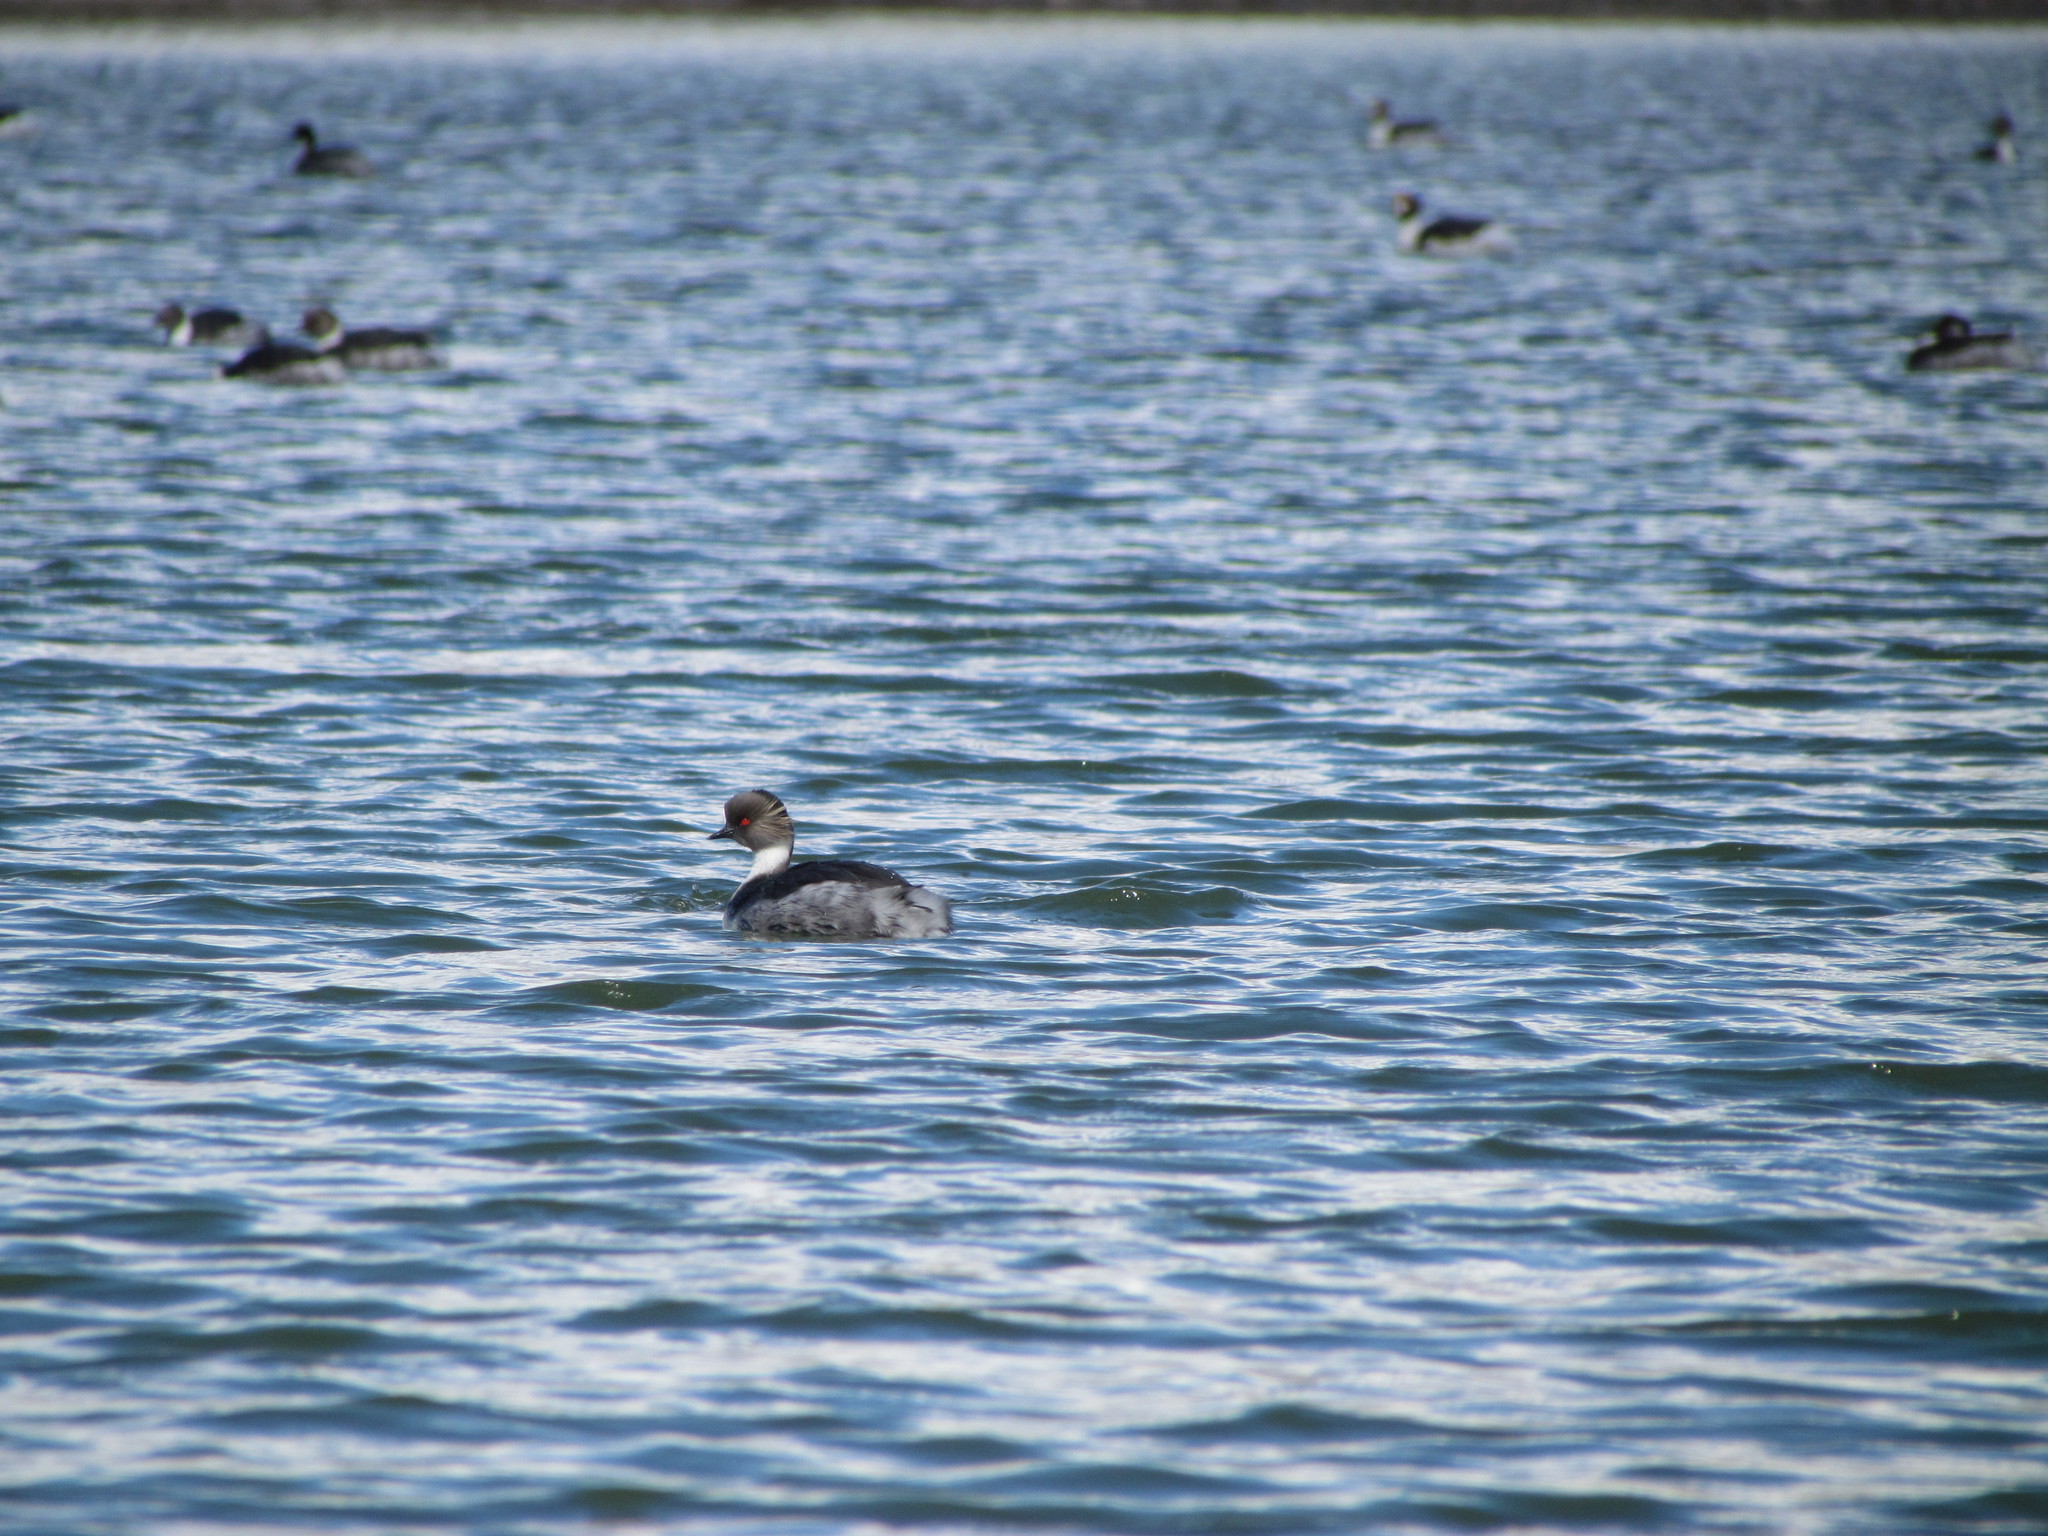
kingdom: Animalia
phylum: Chordata
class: Aves
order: Podicipediformes
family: Podicipedidae
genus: Podiceps
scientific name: Podiceps occipitalis
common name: Silvery grebe
